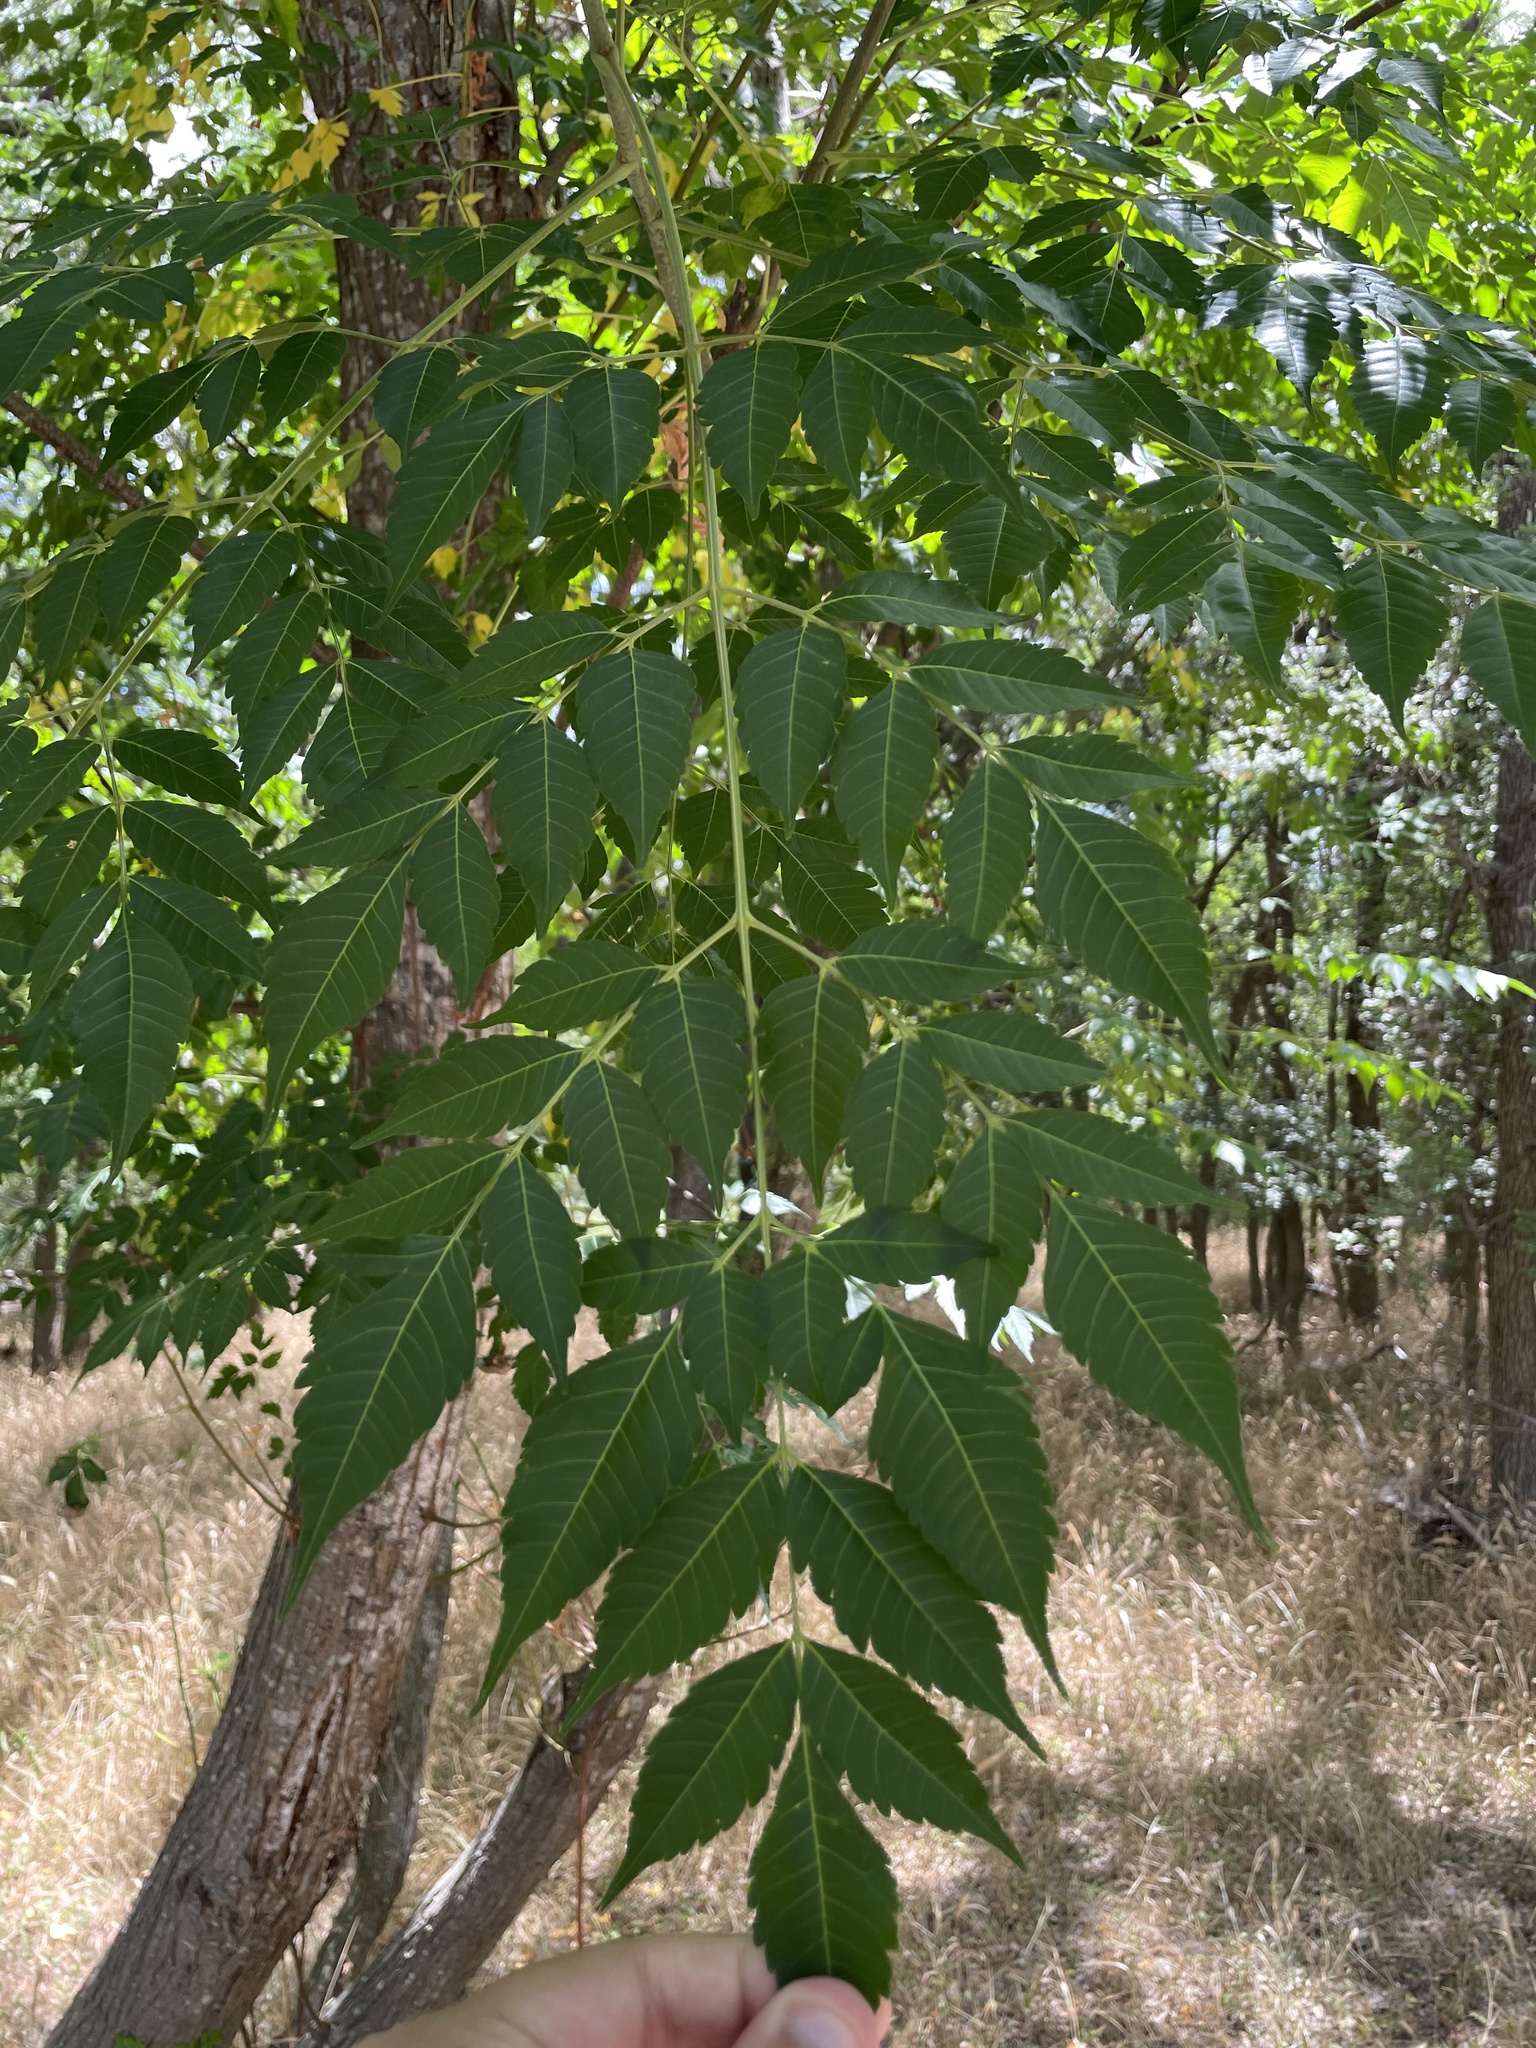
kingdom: Plantae
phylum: Tracheophyta
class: Magnoliopsida
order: Sapindales
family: Meliaceae
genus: Melia
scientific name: Melia azedarach
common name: Chinaberrytree
